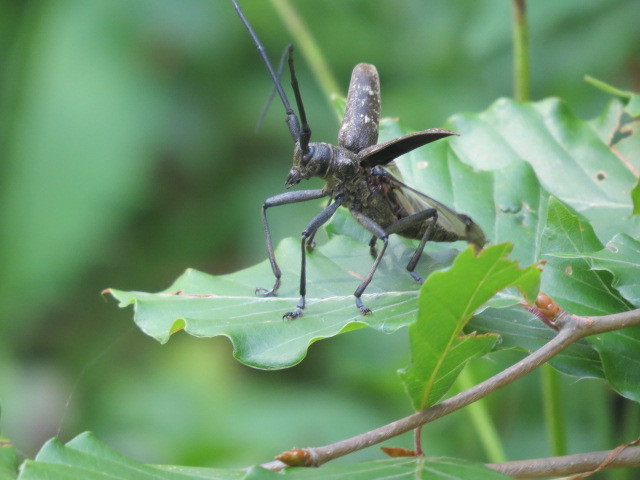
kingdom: Animalia
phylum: Arthropoda
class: Insecta
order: Coleoptera
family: Cerambycidae
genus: Monochamus
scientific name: Monochamus sutor
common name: Pine sawyer
